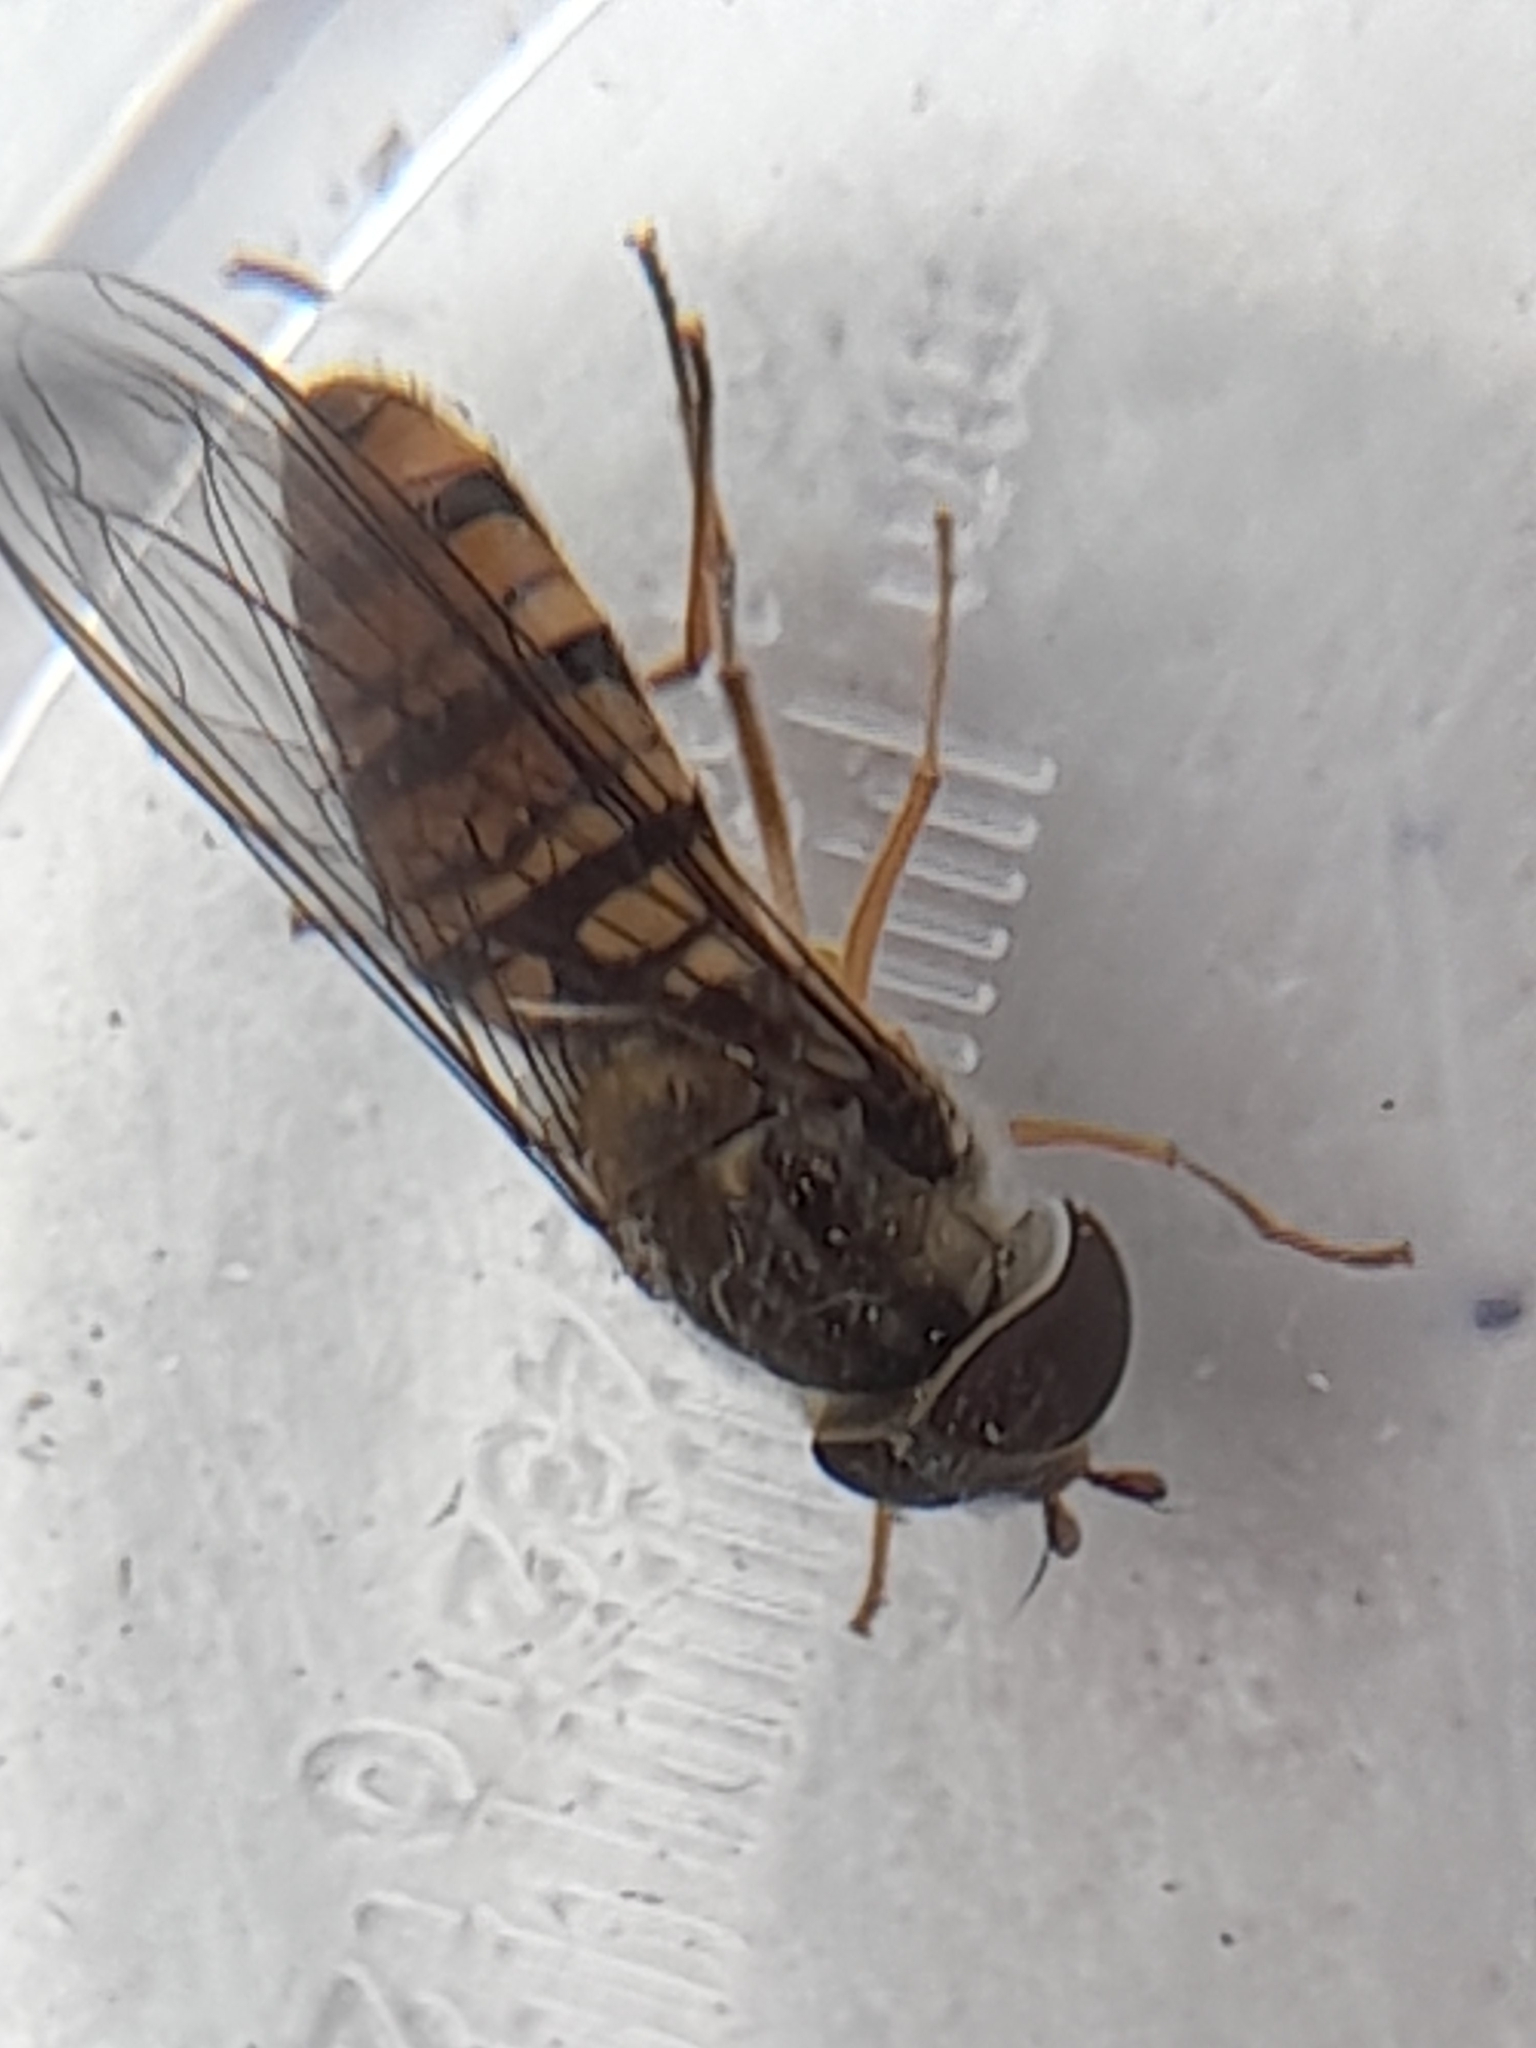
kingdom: Animalia
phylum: Arthropoda
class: Insecta
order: Diptera
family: Syrphidae
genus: Episyrphus
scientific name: Episyrphus balteatus
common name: Marmalade hoverfly
